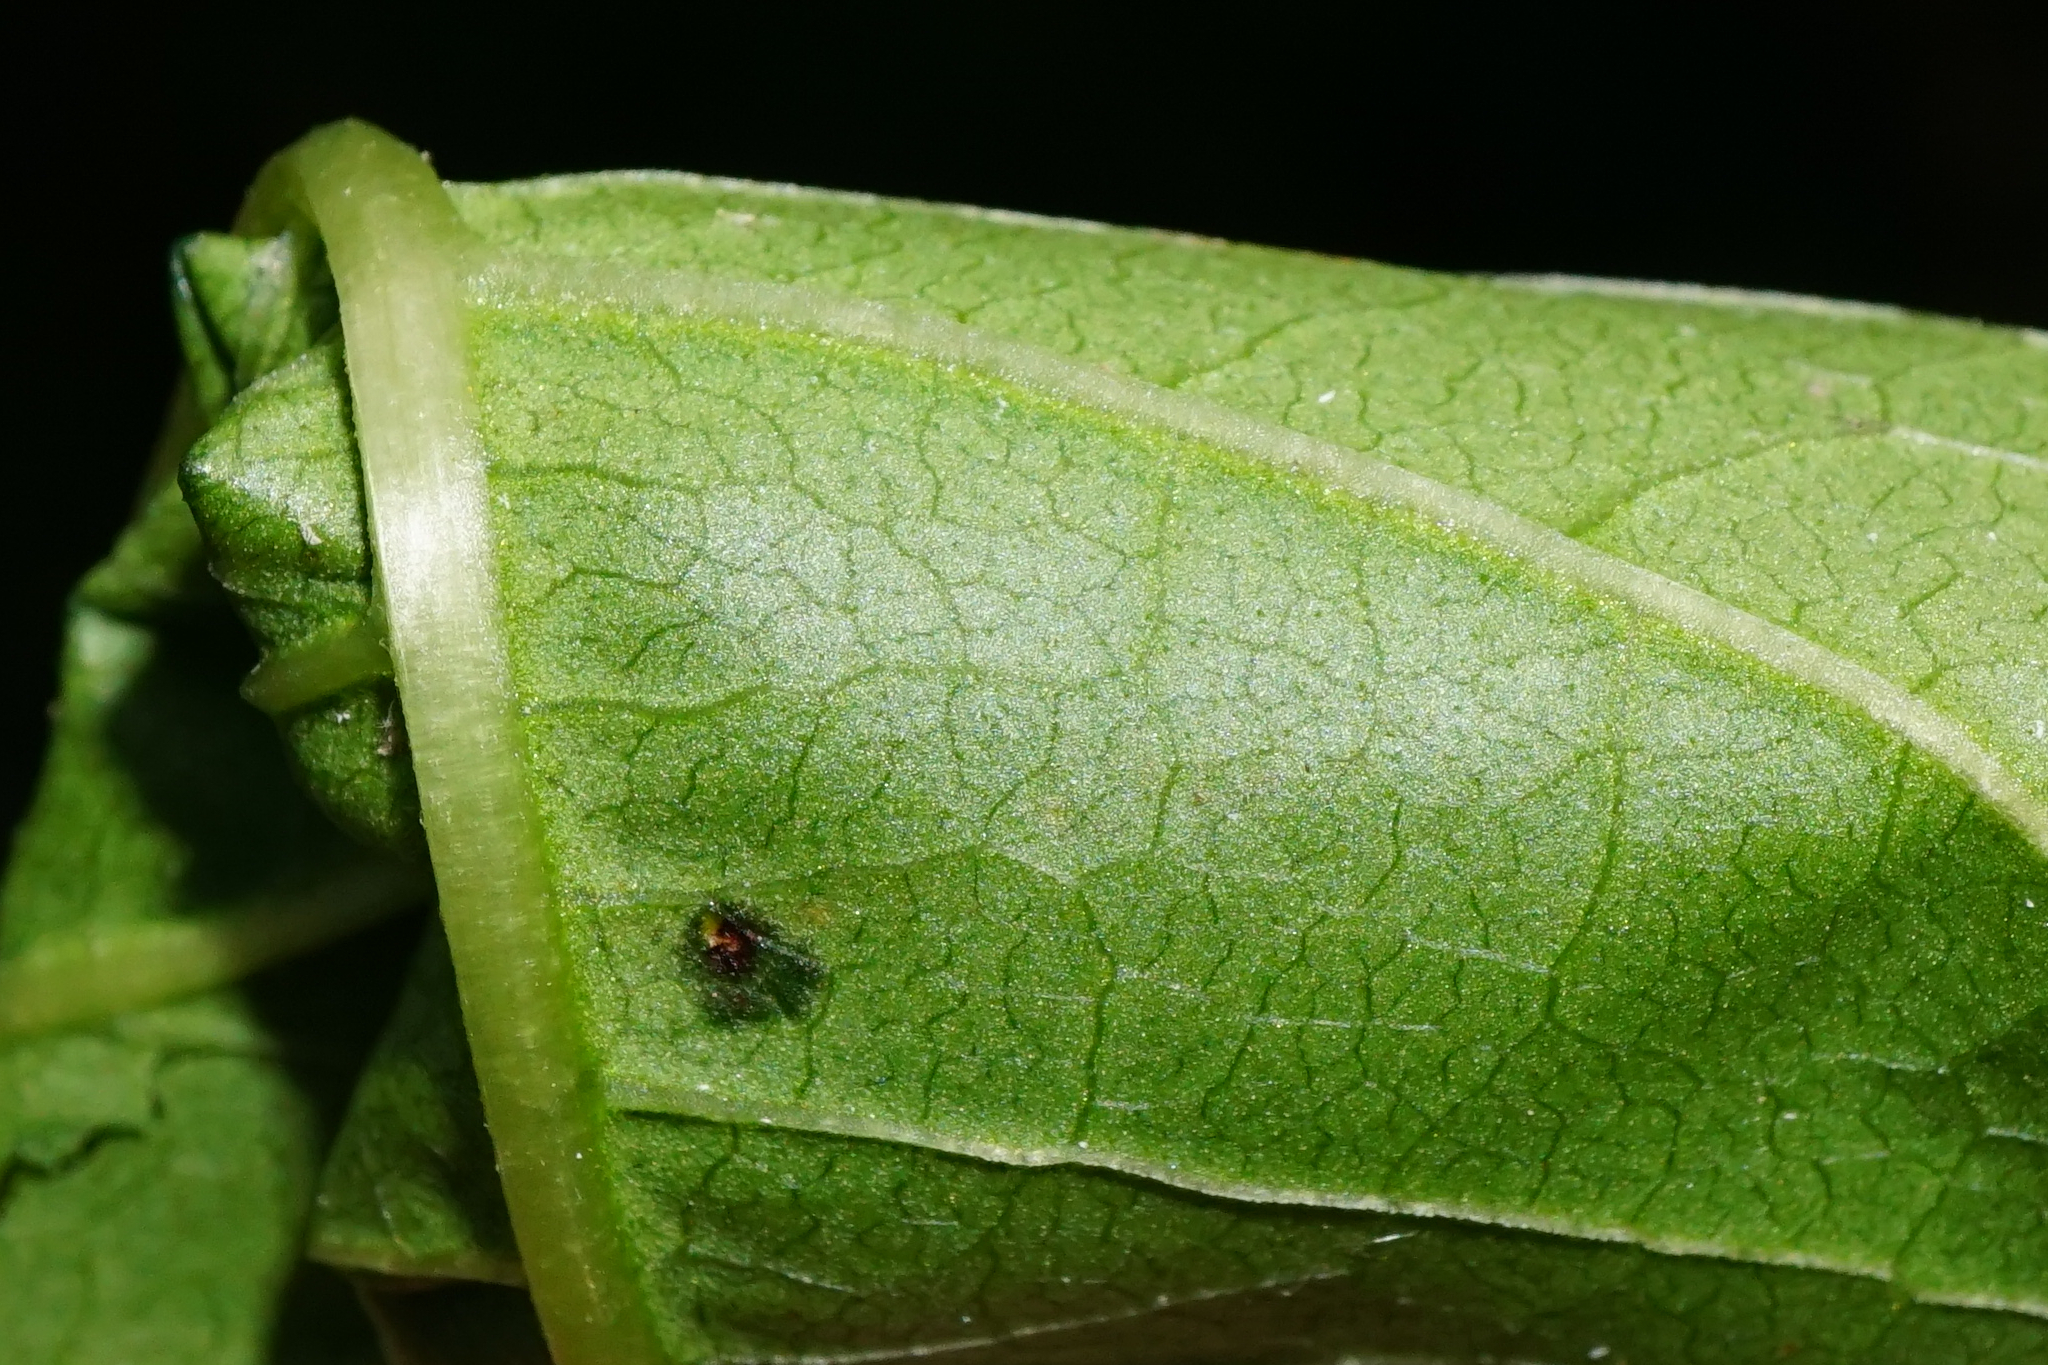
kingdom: Plantae
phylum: Tracheophyta
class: Magnoliopsida
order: Caryophyllales
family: Polygonaceae
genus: Reynoutria
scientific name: Reynoutria japonica
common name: Japanese knotweed
